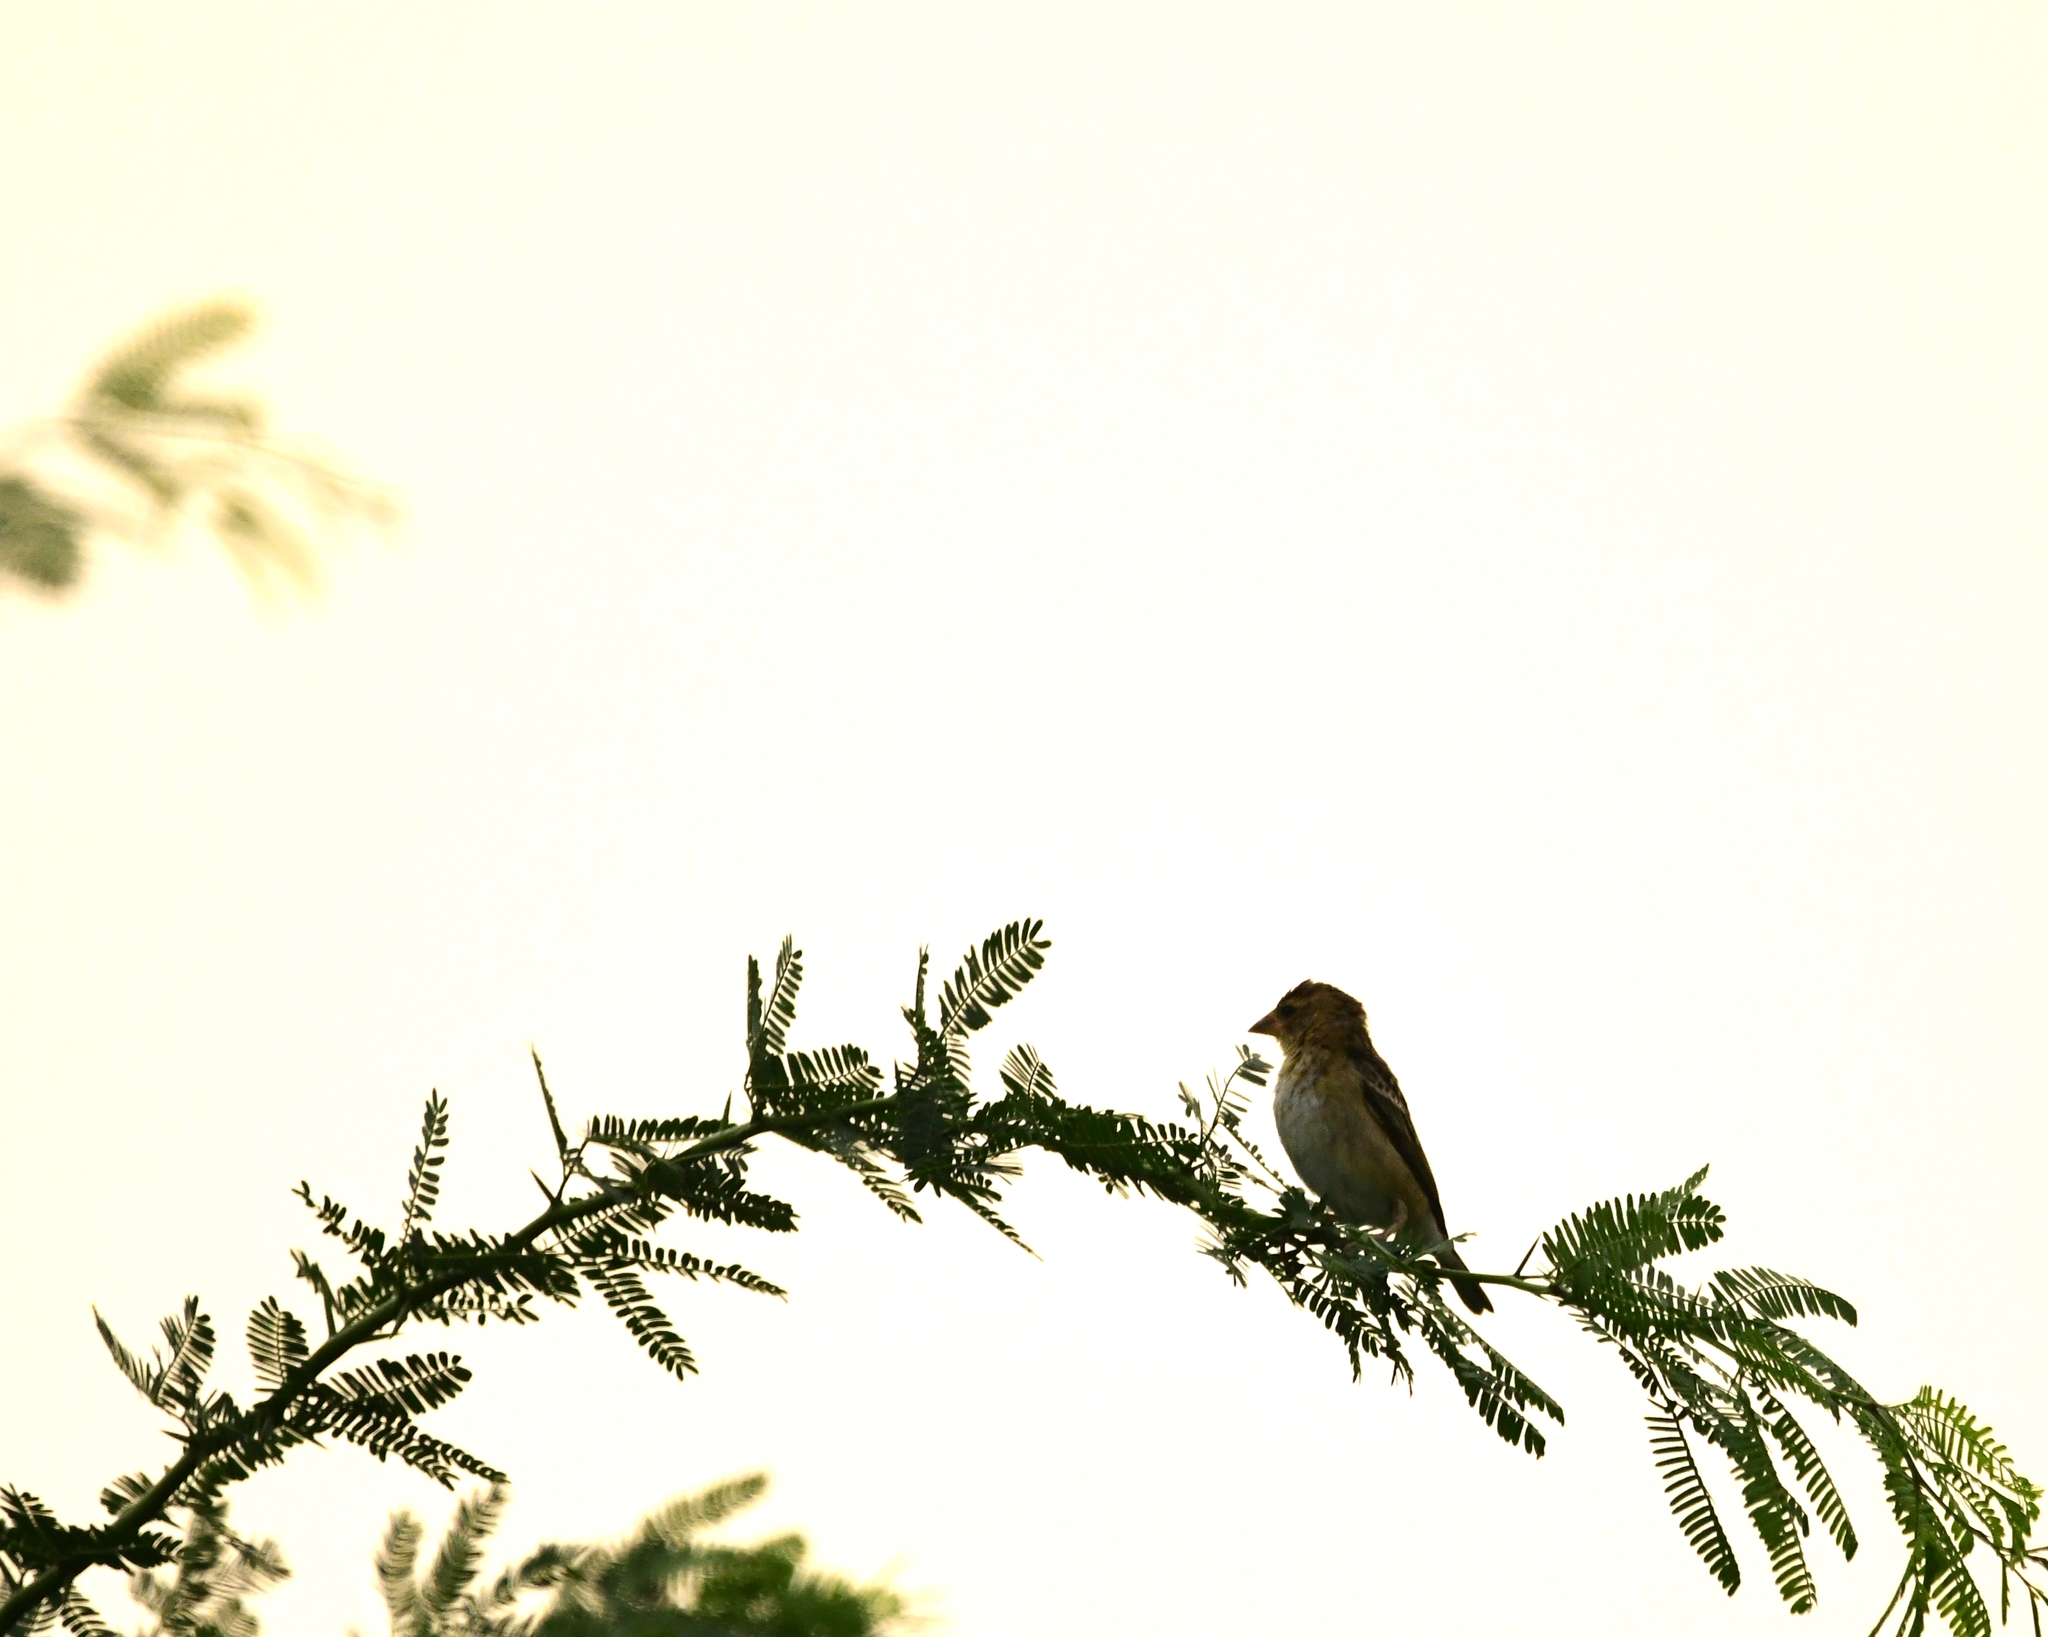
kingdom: Animalia
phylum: Chordata
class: Aves
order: Passeriformes
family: Ploceidae
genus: Ploceus
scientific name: Ploceus philippinus
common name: Baya weaver
